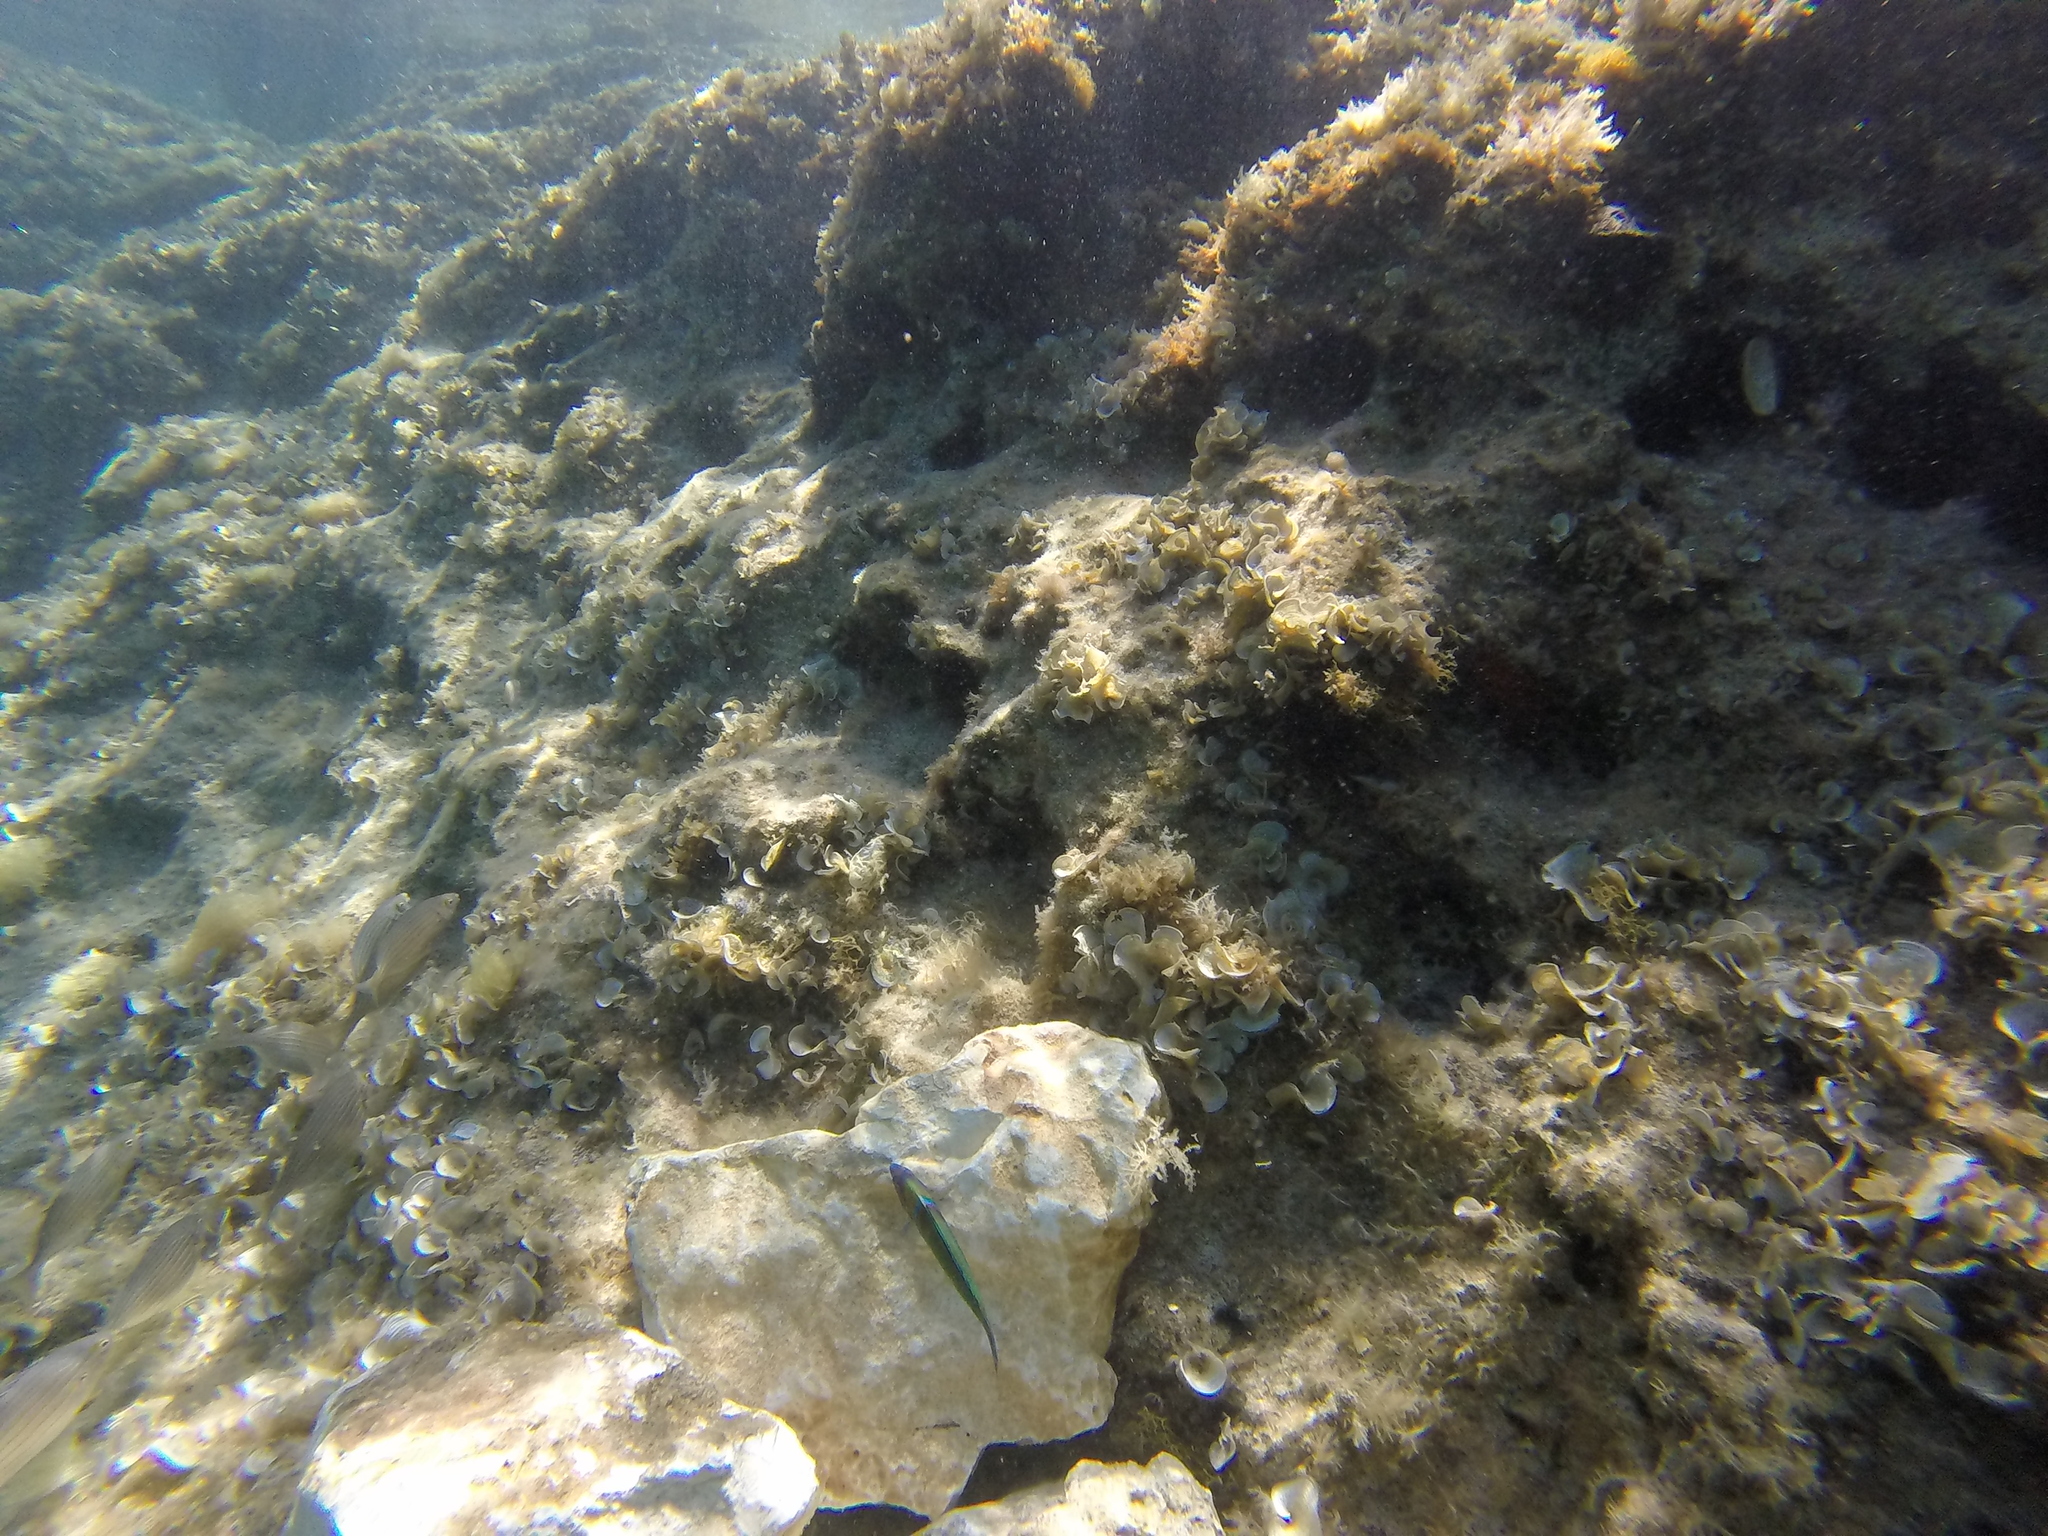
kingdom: Animalia
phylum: Chordata
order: Perciformes
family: Labridae
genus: Thalassoma
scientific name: Thalassoma pavo
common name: Ornate wrasse
